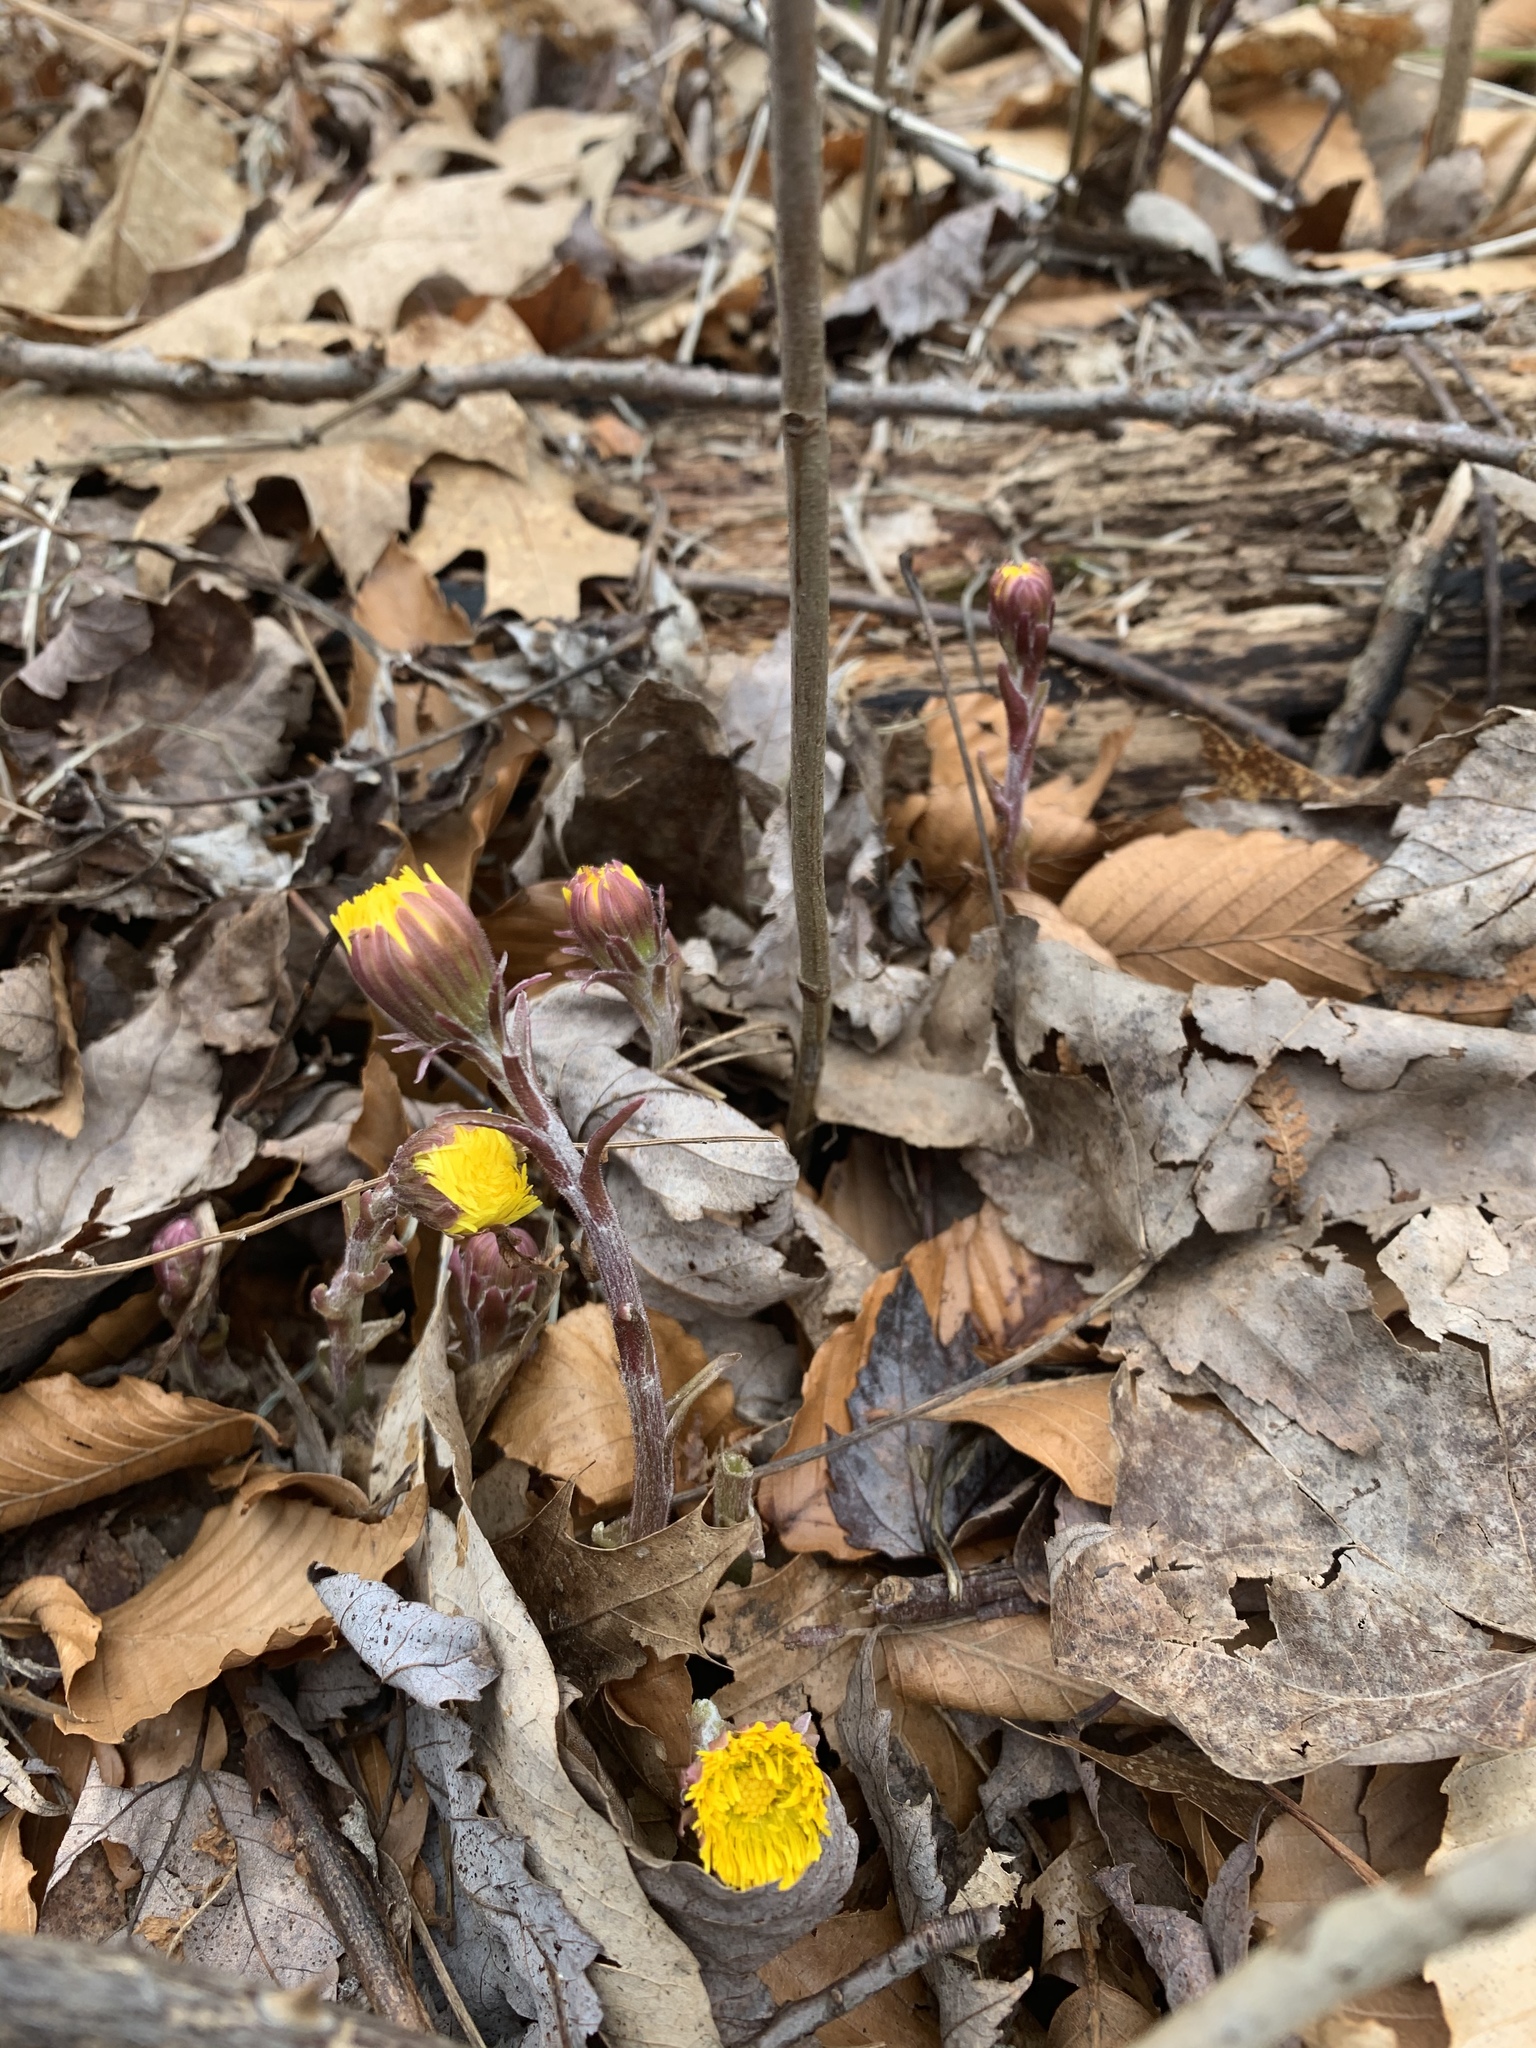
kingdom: Plantae
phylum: Tracheophyta
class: Magnoliopsida
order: Asterales
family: Asteraceae
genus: Tussilago
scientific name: Tussilago farfara
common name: Coltsfoot
